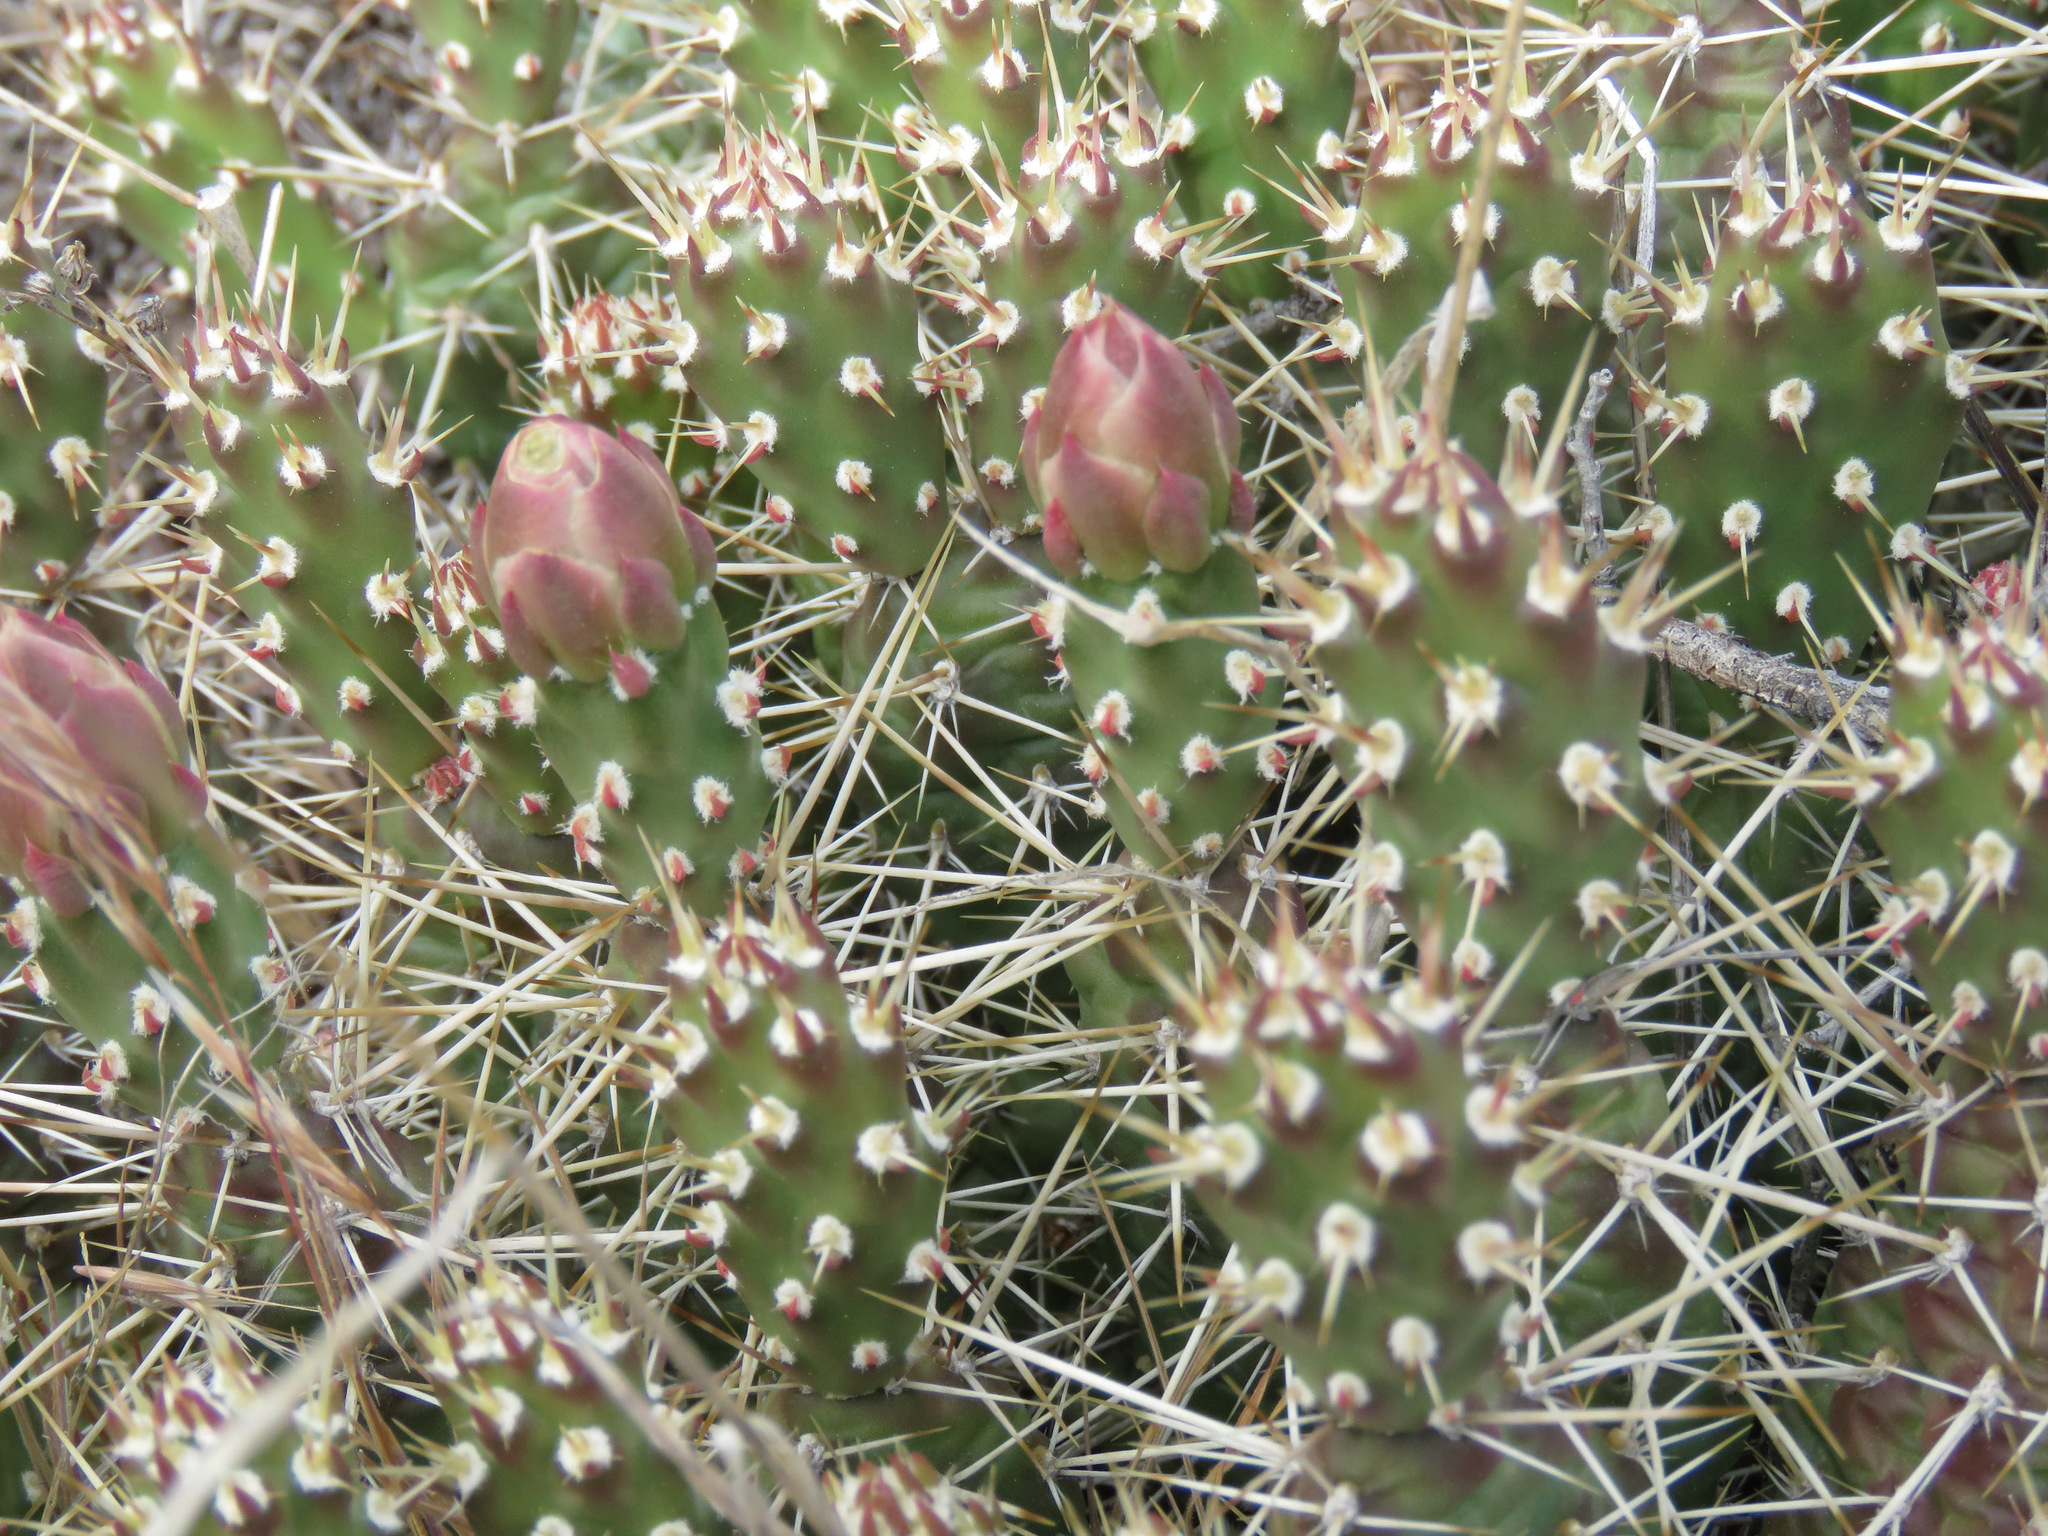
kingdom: Plantae
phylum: Tracheophyta
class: Magnoliopsida
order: Caryophyllales
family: Cactaceae
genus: Opuntia
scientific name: Opuntia fragilis
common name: Brittle cactus
